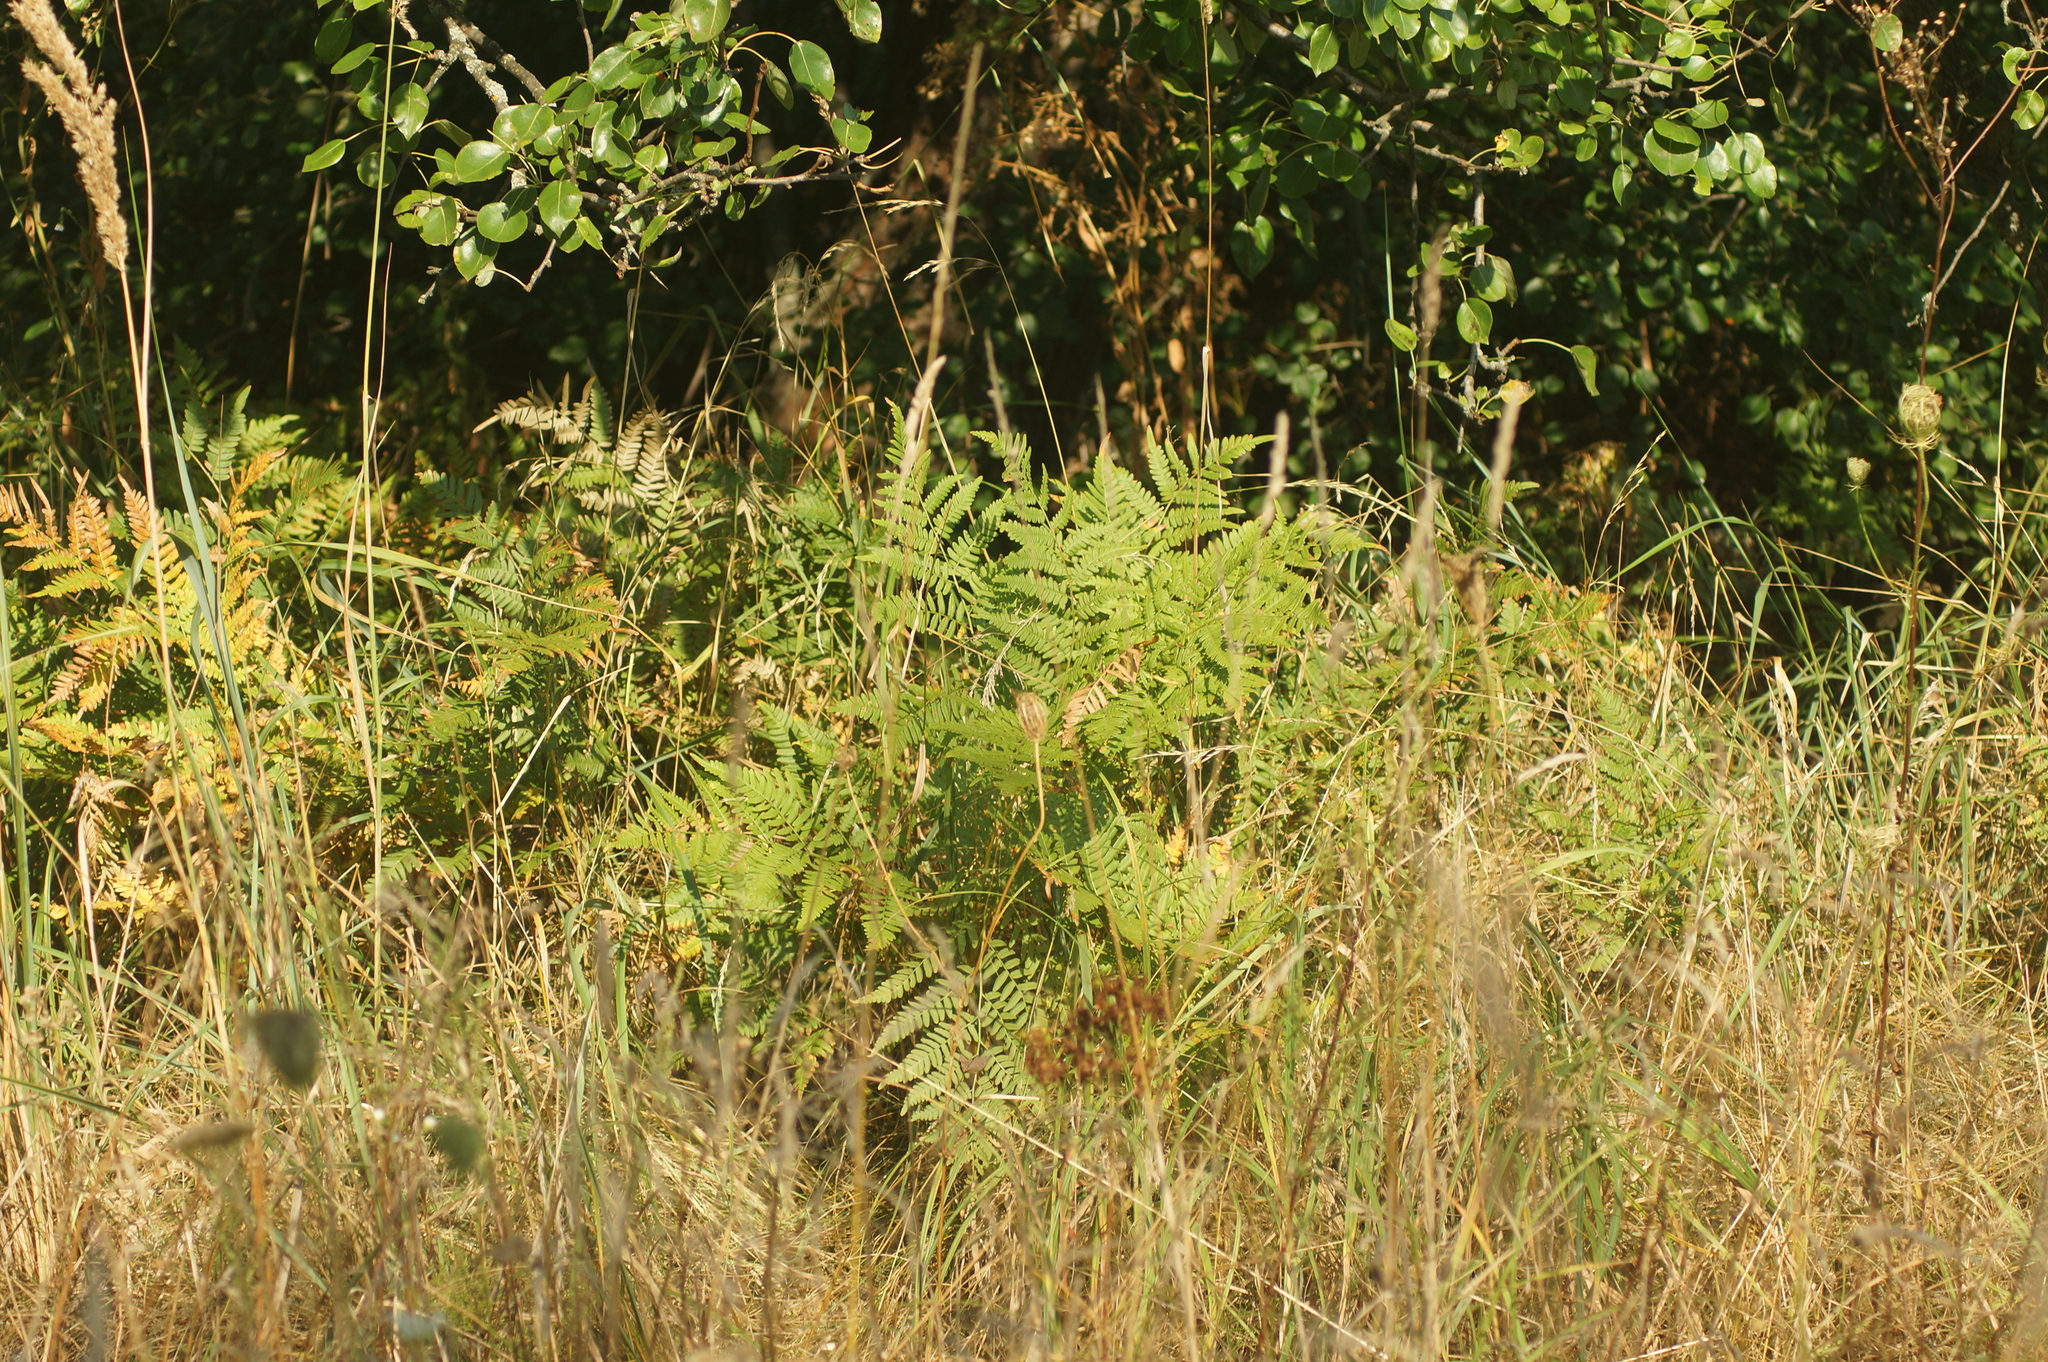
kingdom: Plantae
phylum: Tracheophyta
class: Polypodiopsida
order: Polypodiales
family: Dennstaedtiaceae
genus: Pteridium
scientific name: Pteridium aquilinum
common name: Bracken
